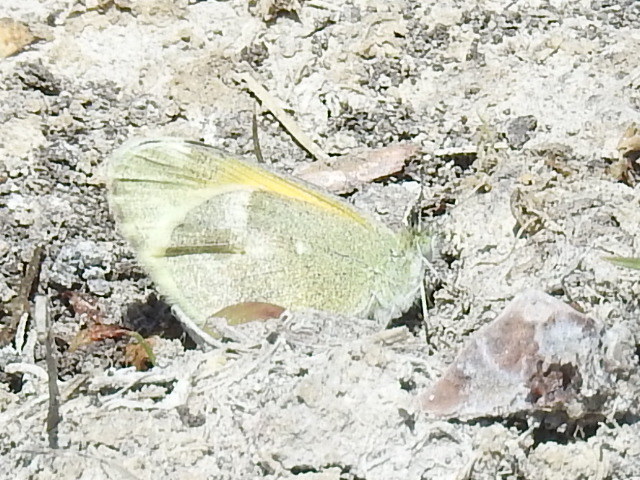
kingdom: Animalia
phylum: Arthropoda
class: Insecta
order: Lepidoptera
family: Pieridae
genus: Nathalis
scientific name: Nathalis iole
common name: Dainty sulphur
